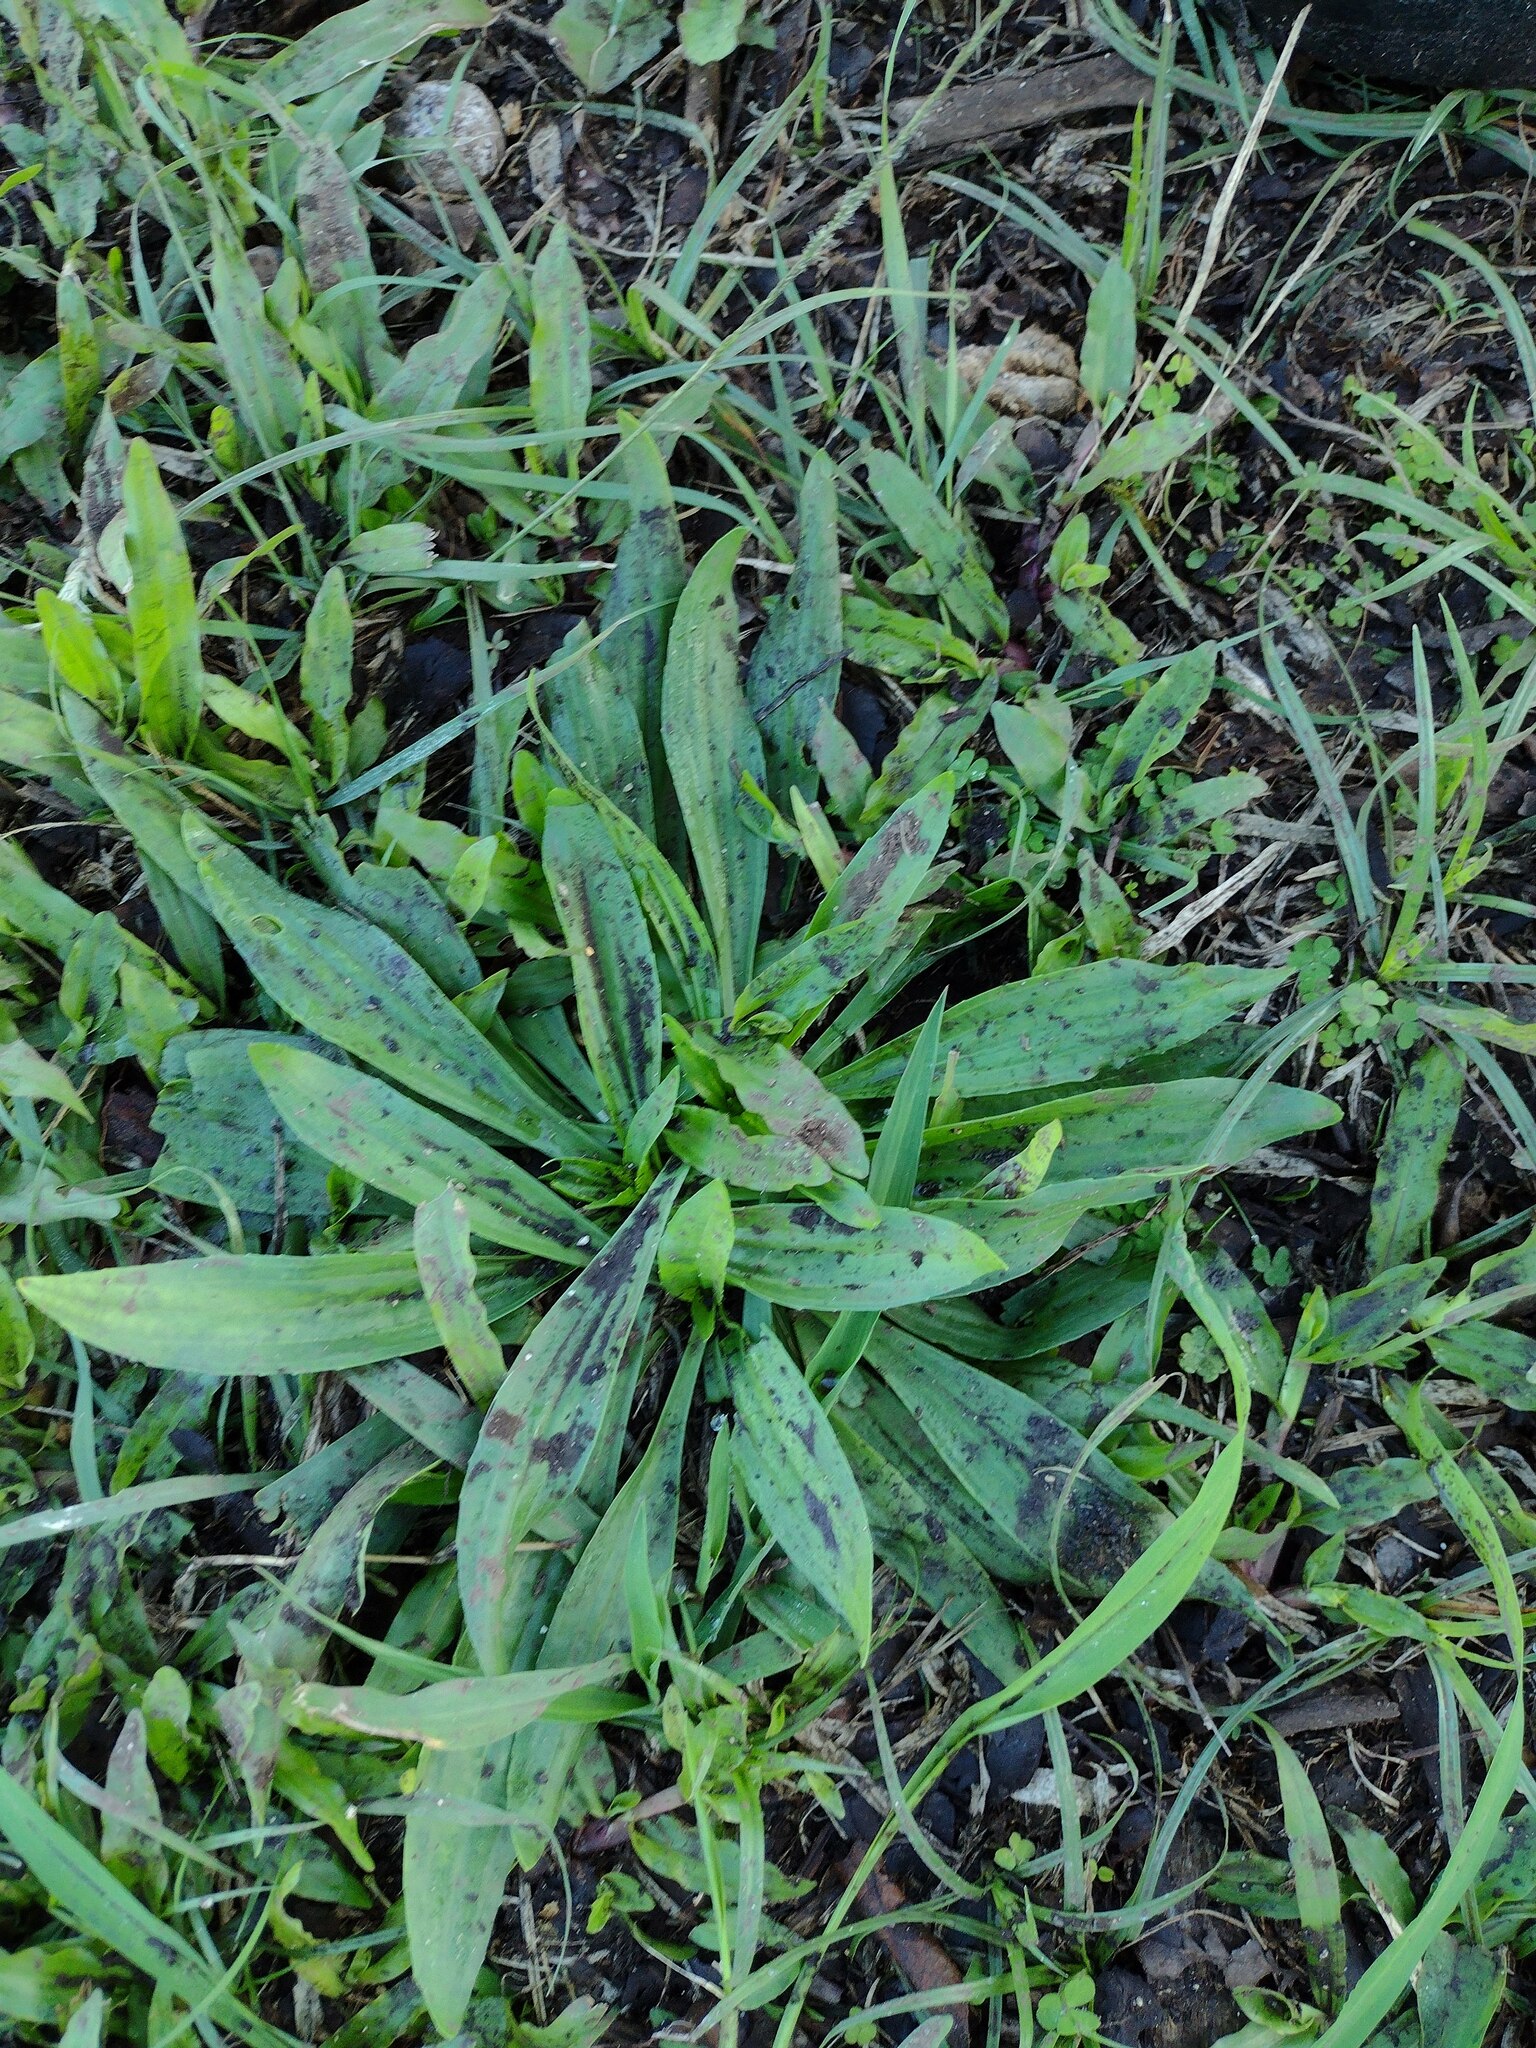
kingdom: Plantae
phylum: Tracheophyta
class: Magnoliopsida
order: Lamiales
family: Plantaginaceae
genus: Plantago
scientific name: Plantago lanceolata
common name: Ribwort plantain
